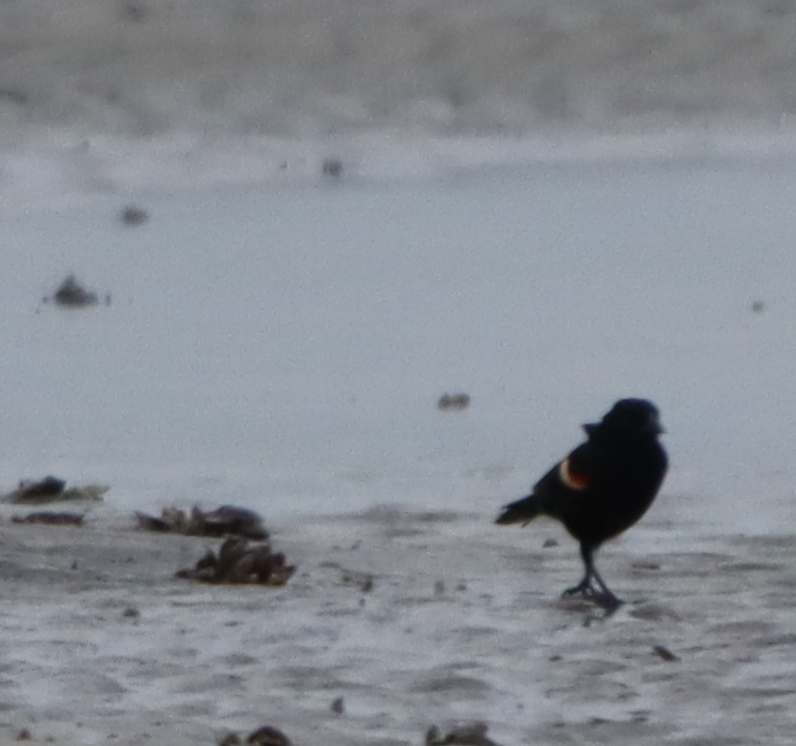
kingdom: Animalia
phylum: Chordata
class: Aves
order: Passeriformes
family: Icteridae
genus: Agelaius
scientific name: Agelaius phoeniceus
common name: Red-winged blackbird
